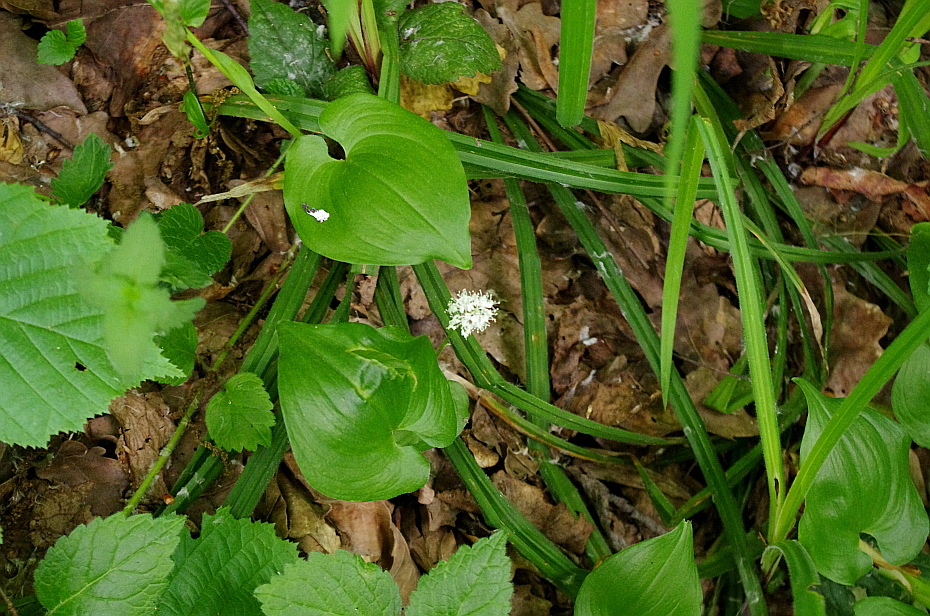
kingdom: Plantae
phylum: Tracheophyta
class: Liliopsida
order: Asparagales
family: Asparagaceae
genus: Maianthemum
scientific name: Maianthemum bifolium
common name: May lily
